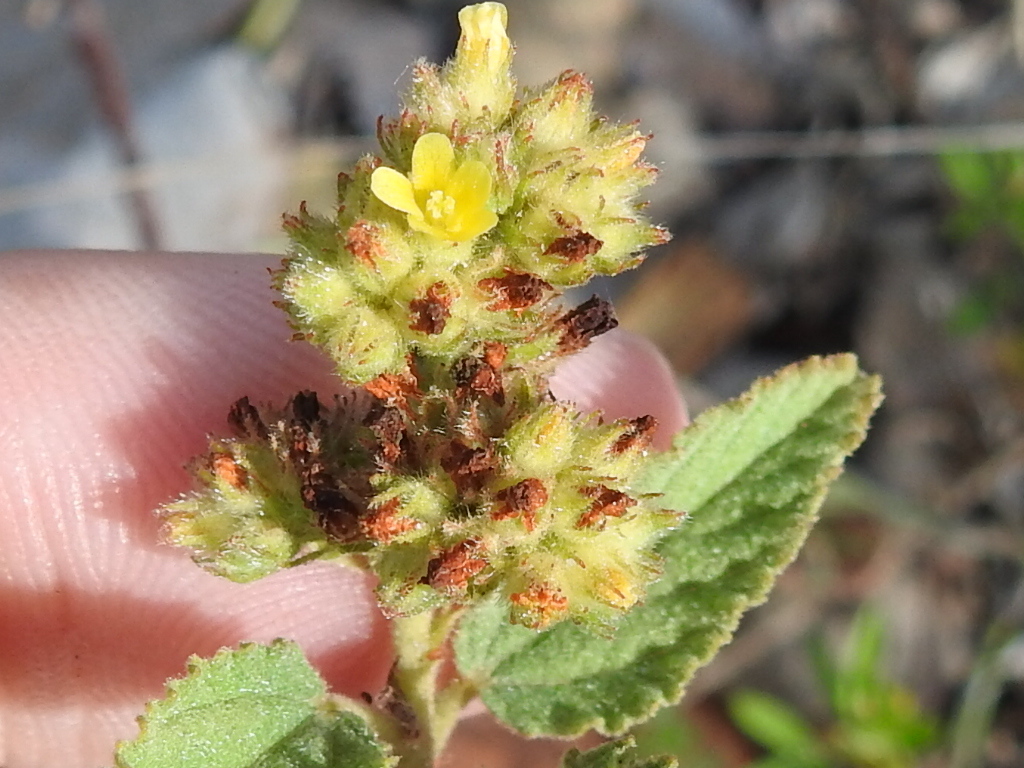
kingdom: Plantae
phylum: Tracheophyta
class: Magnoliopsida
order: Malvales
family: Malvaceae
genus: Waltheria
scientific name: Waltheria indica
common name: Leather-coat
